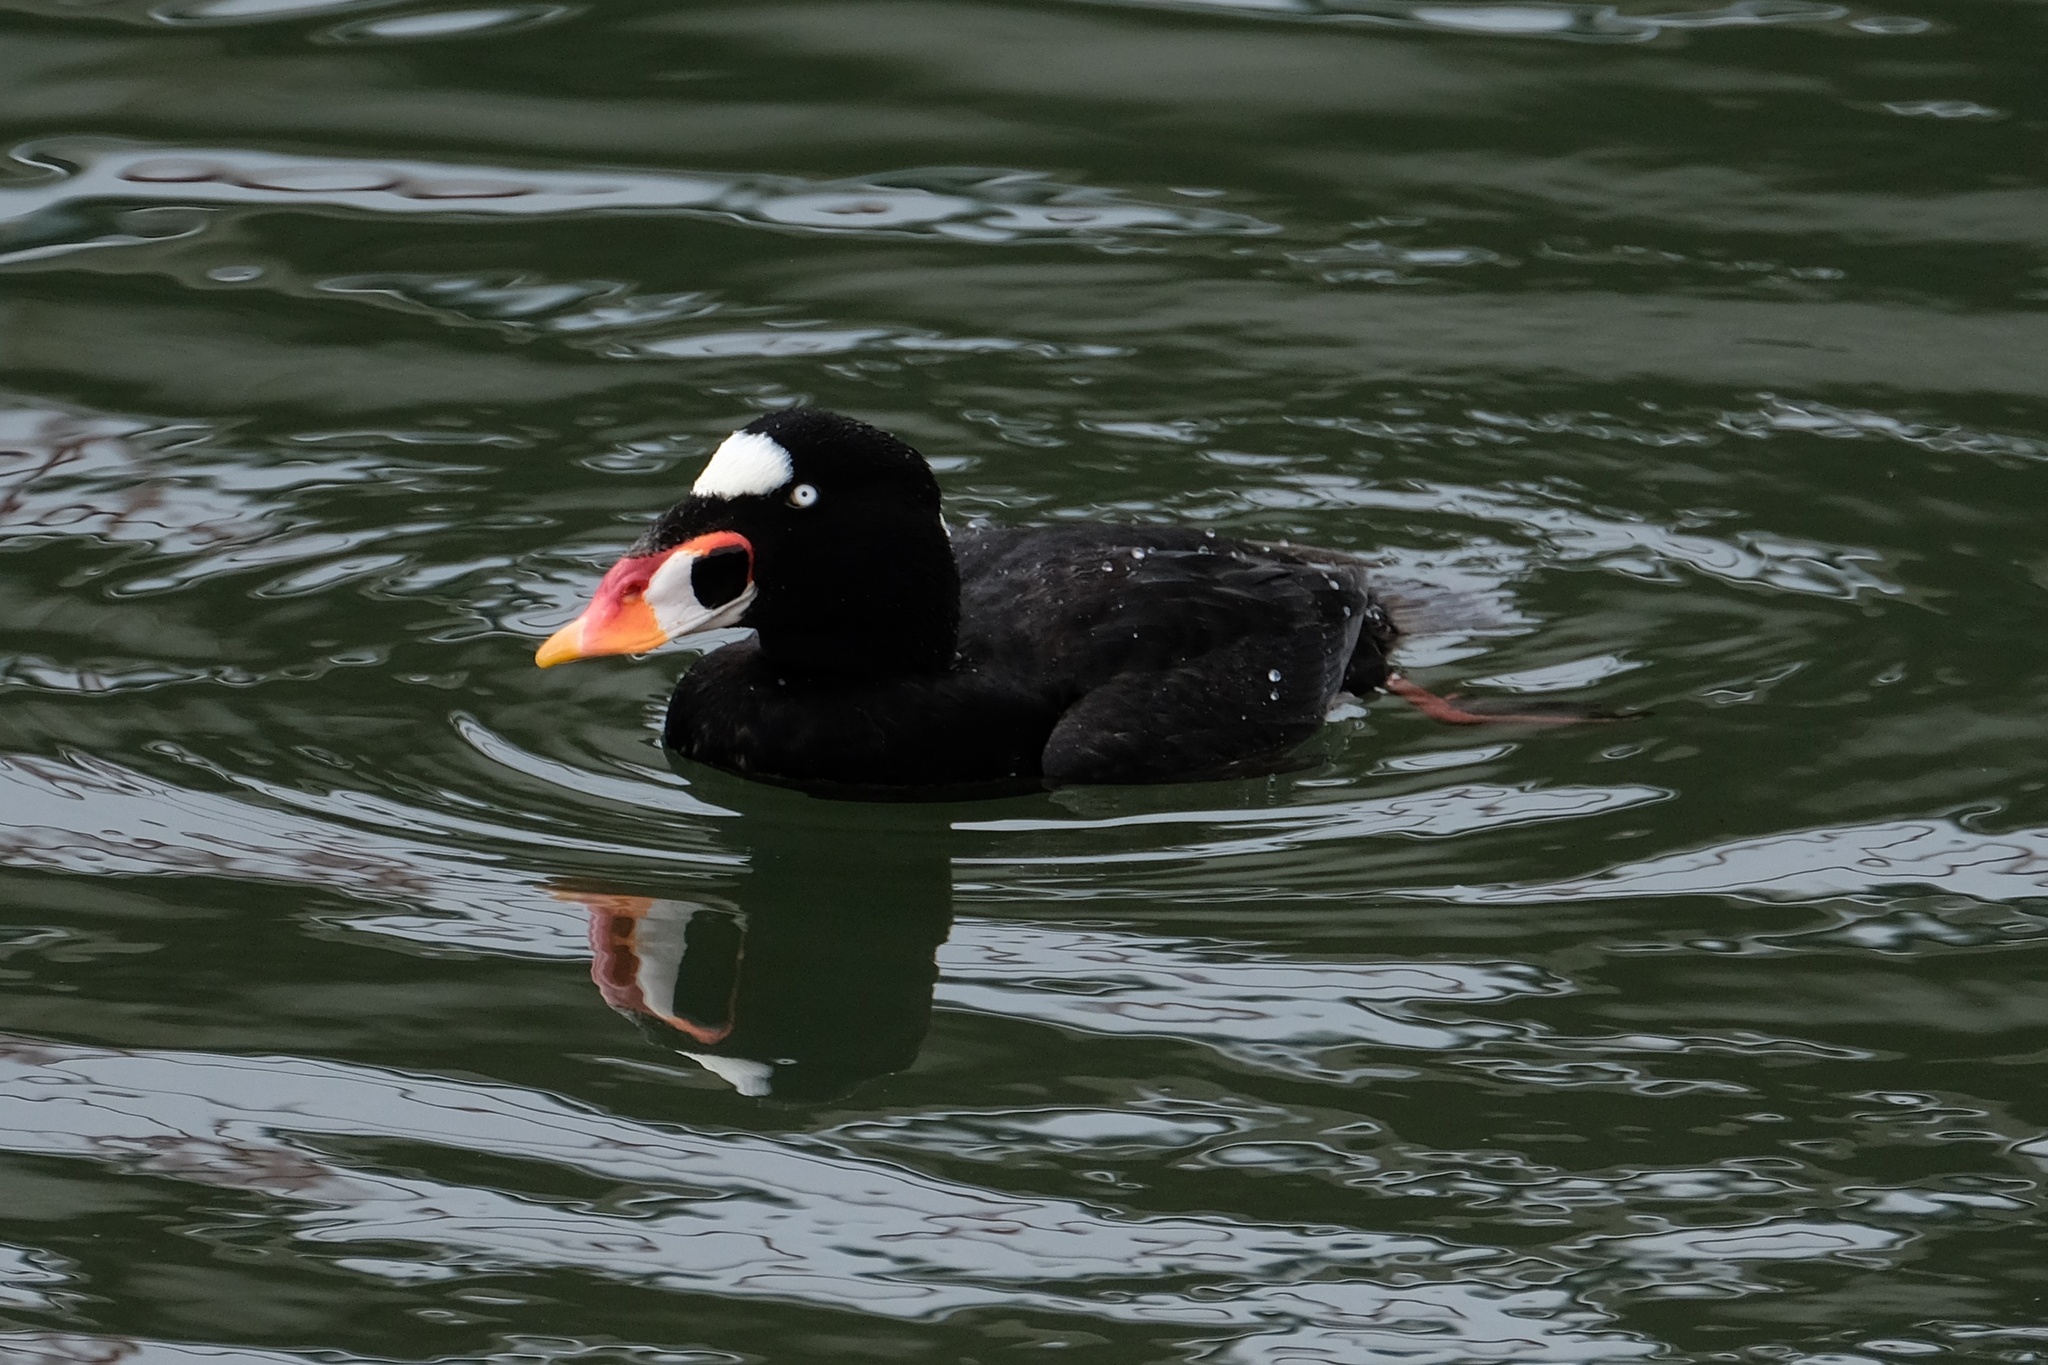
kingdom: Animalia
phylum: Chordata
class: Aves
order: Anseriformes
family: Anatidae
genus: Melanitta
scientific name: Melanitta perspicillata
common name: Surf scoter
